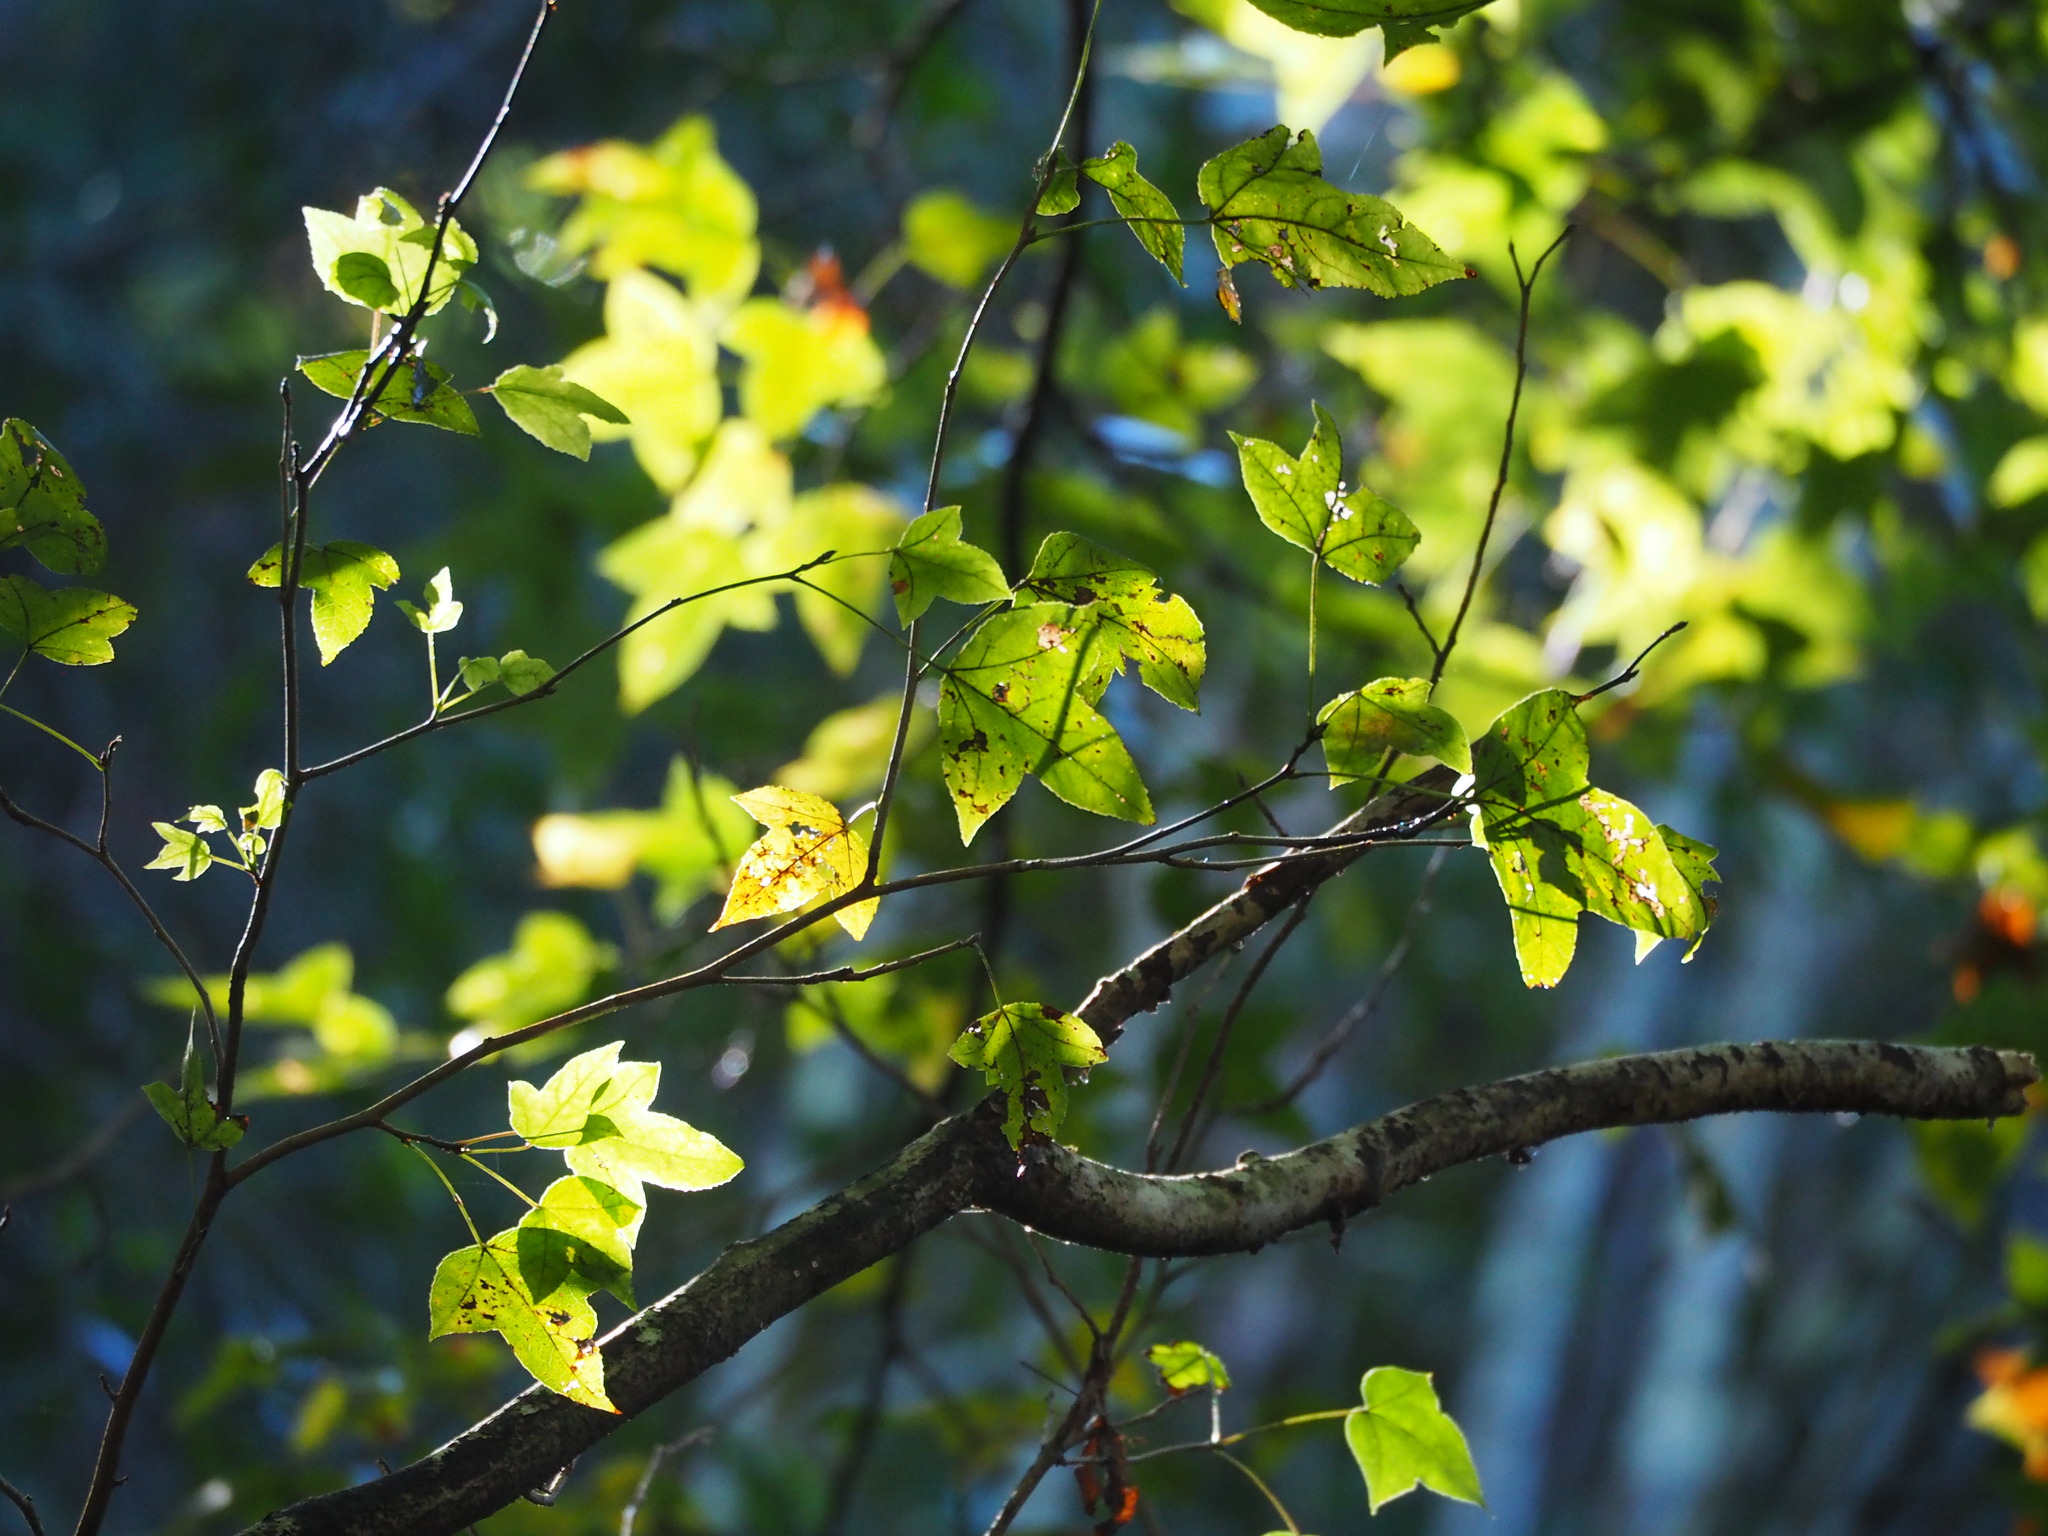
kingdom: Plantae
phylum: Tracheophyta
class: Magnoliopsida
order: Saxifragales
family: Altingiaceae
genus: Liquidambar
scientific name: Liquidambar formosana
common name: Chinese sweet gum
